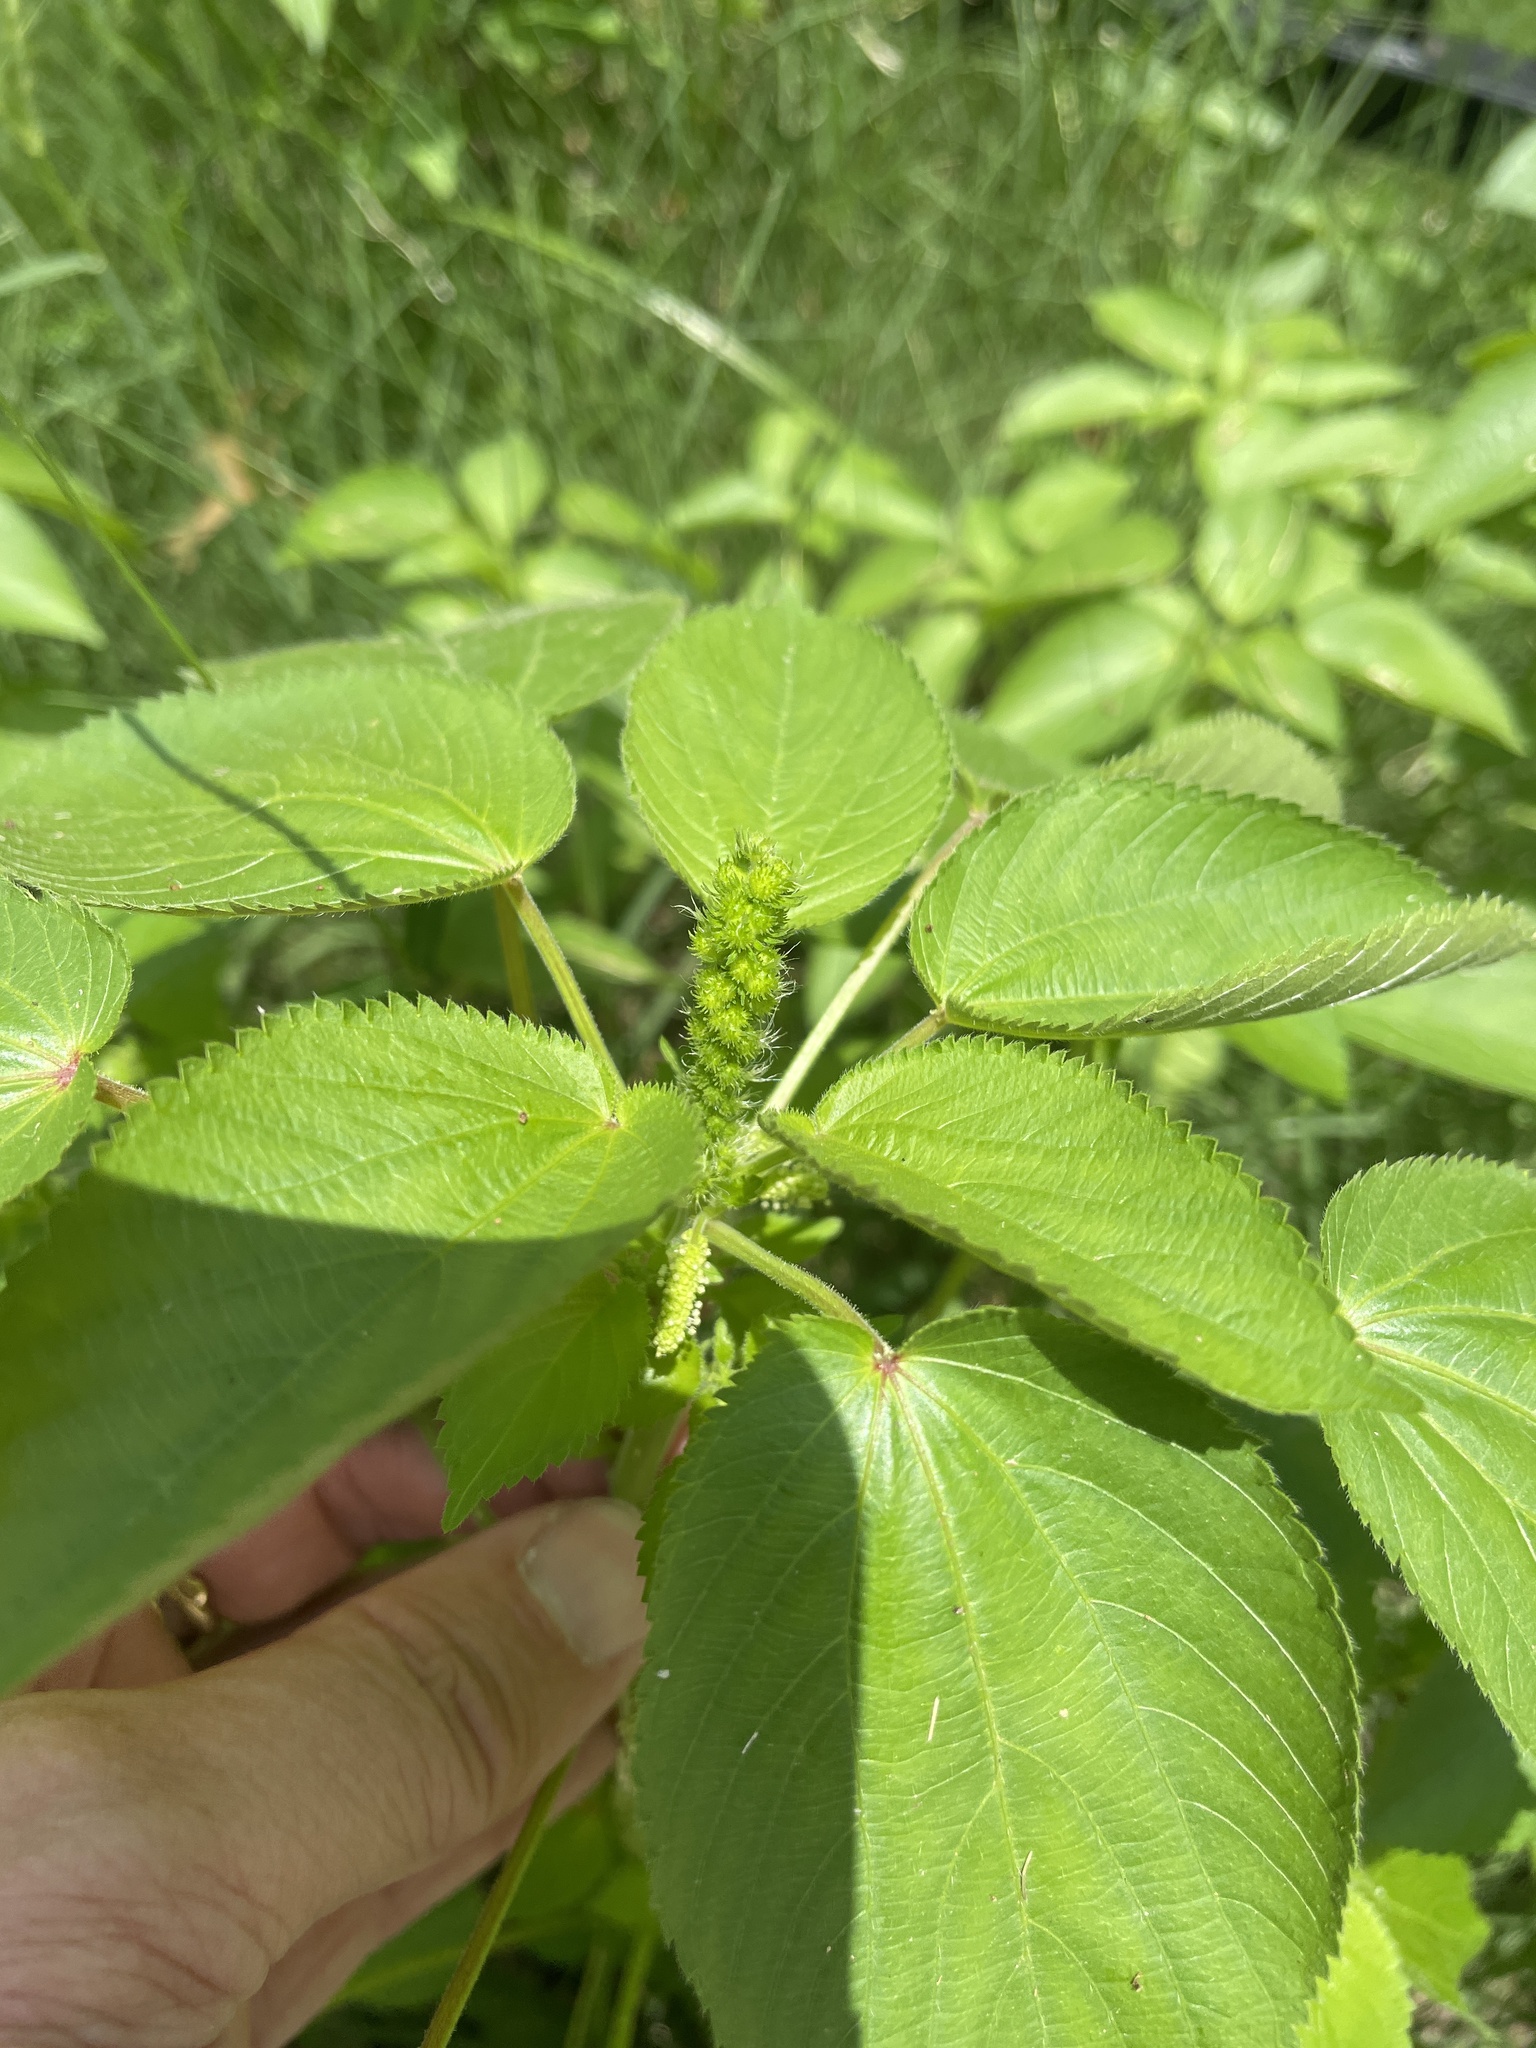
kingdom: Plantae
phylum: Tracheophyta
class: Magnoliopsida
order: Malpighiales
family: Euphorbiaceae
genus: Acalypha
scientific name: Acalypha ostryifolia
